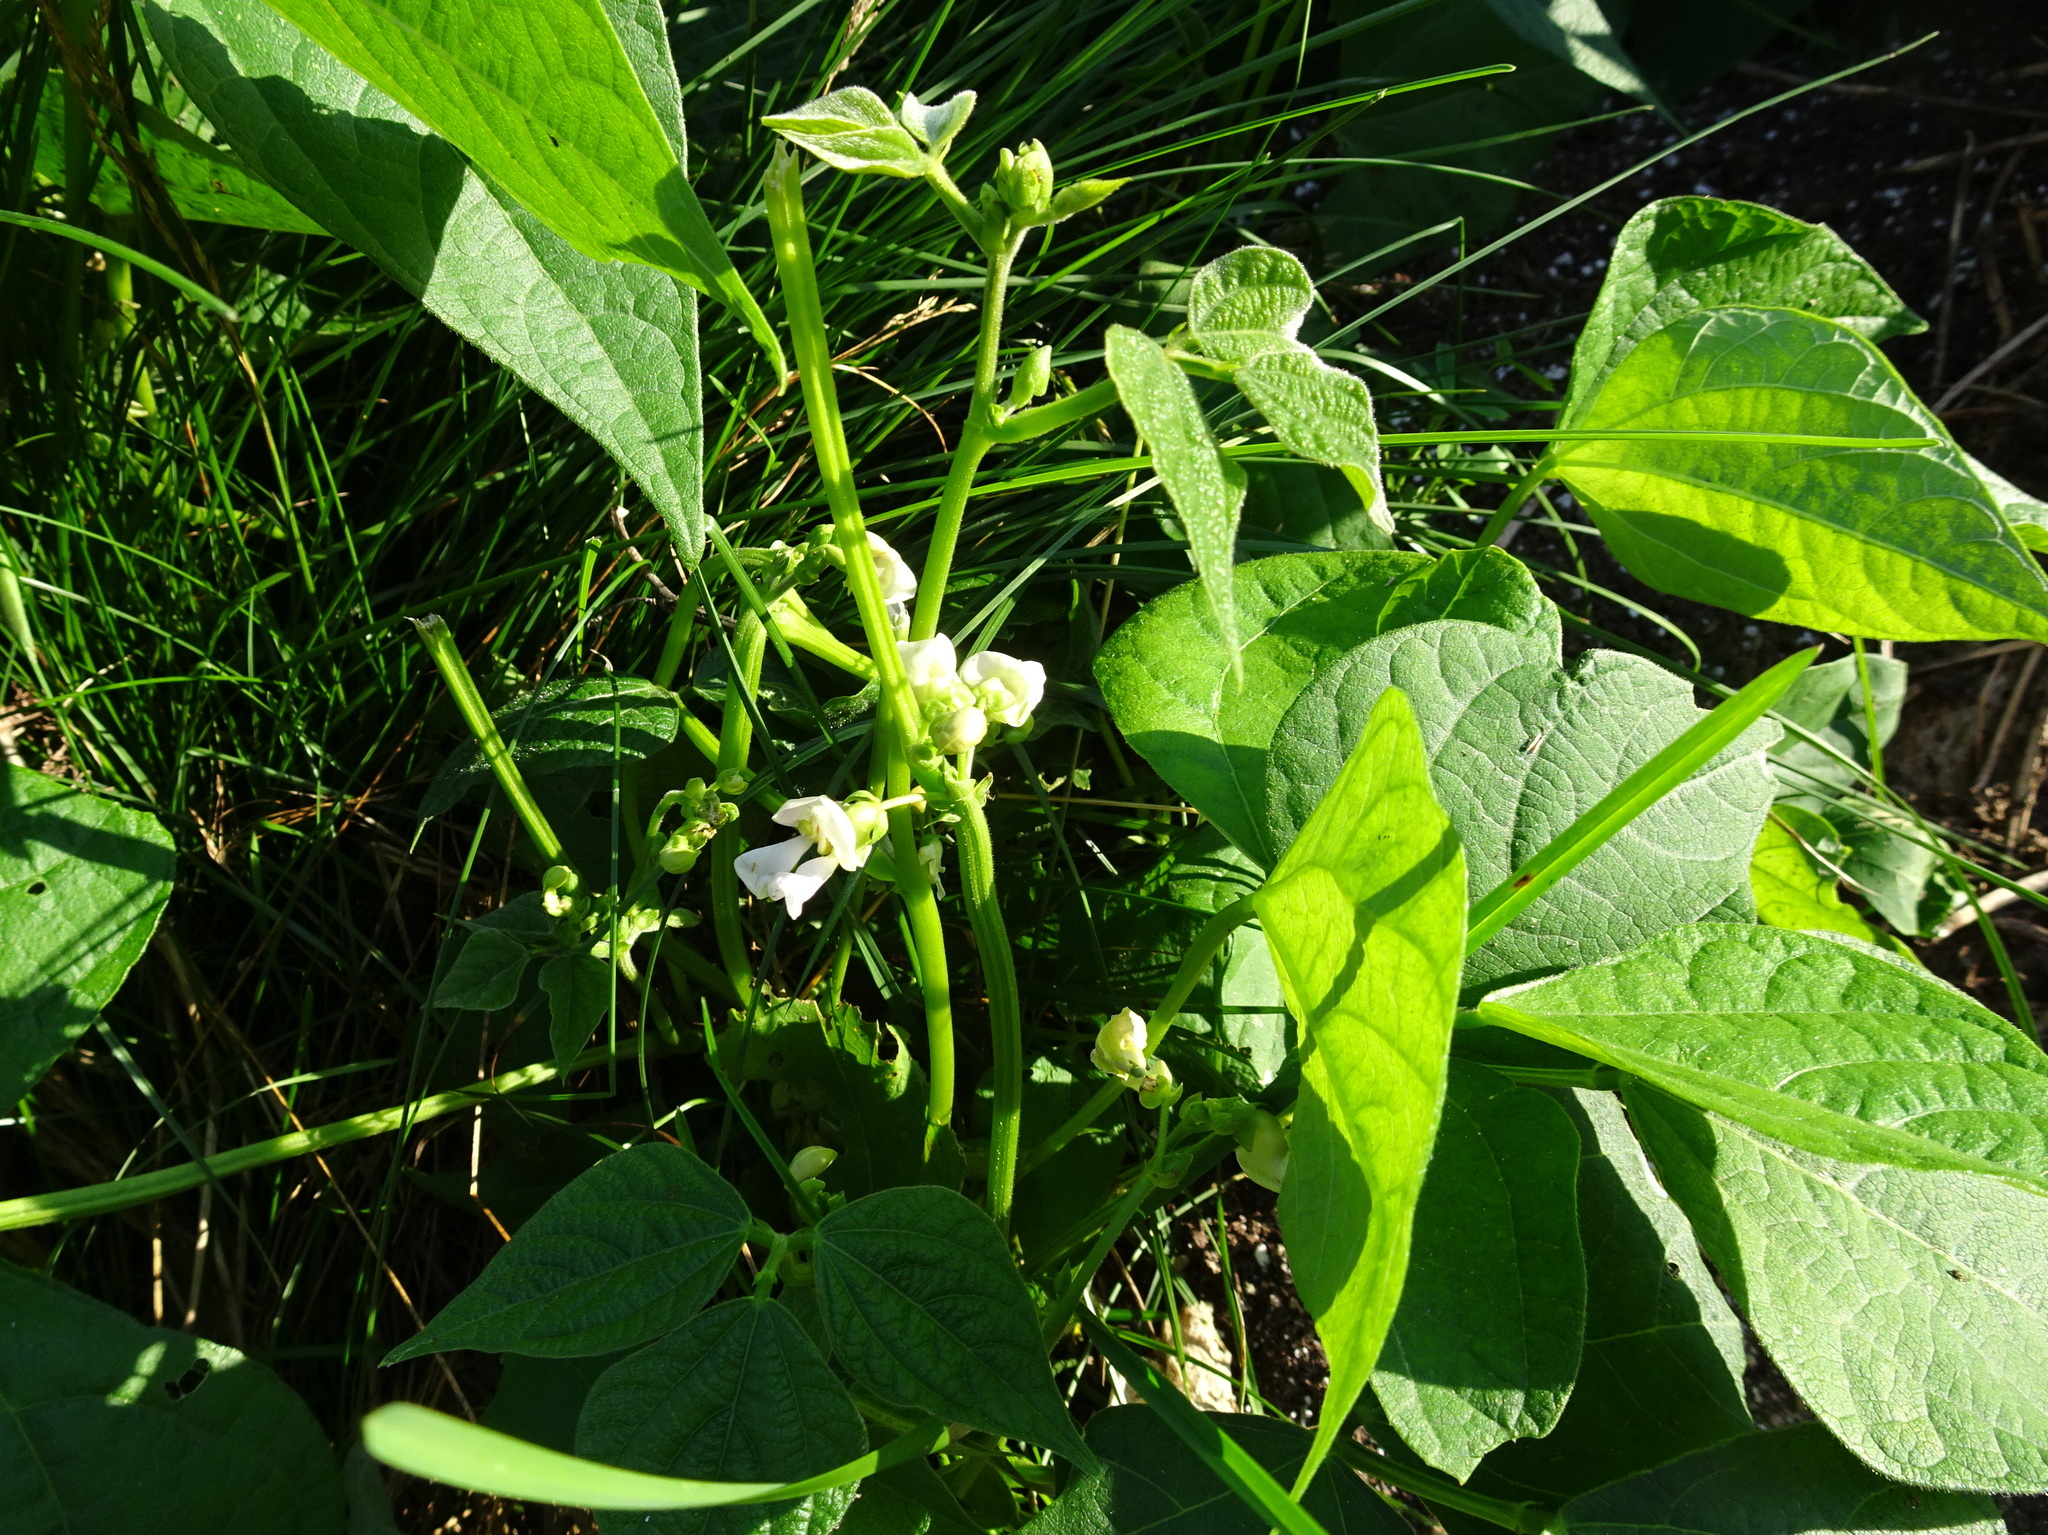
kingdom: Plantae
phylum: Tracheophyta
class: Magnoliopsida
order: Fabales
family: Fabaceae
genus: Phaseolus
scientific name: Phaseolus vulgaris
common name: Bean
